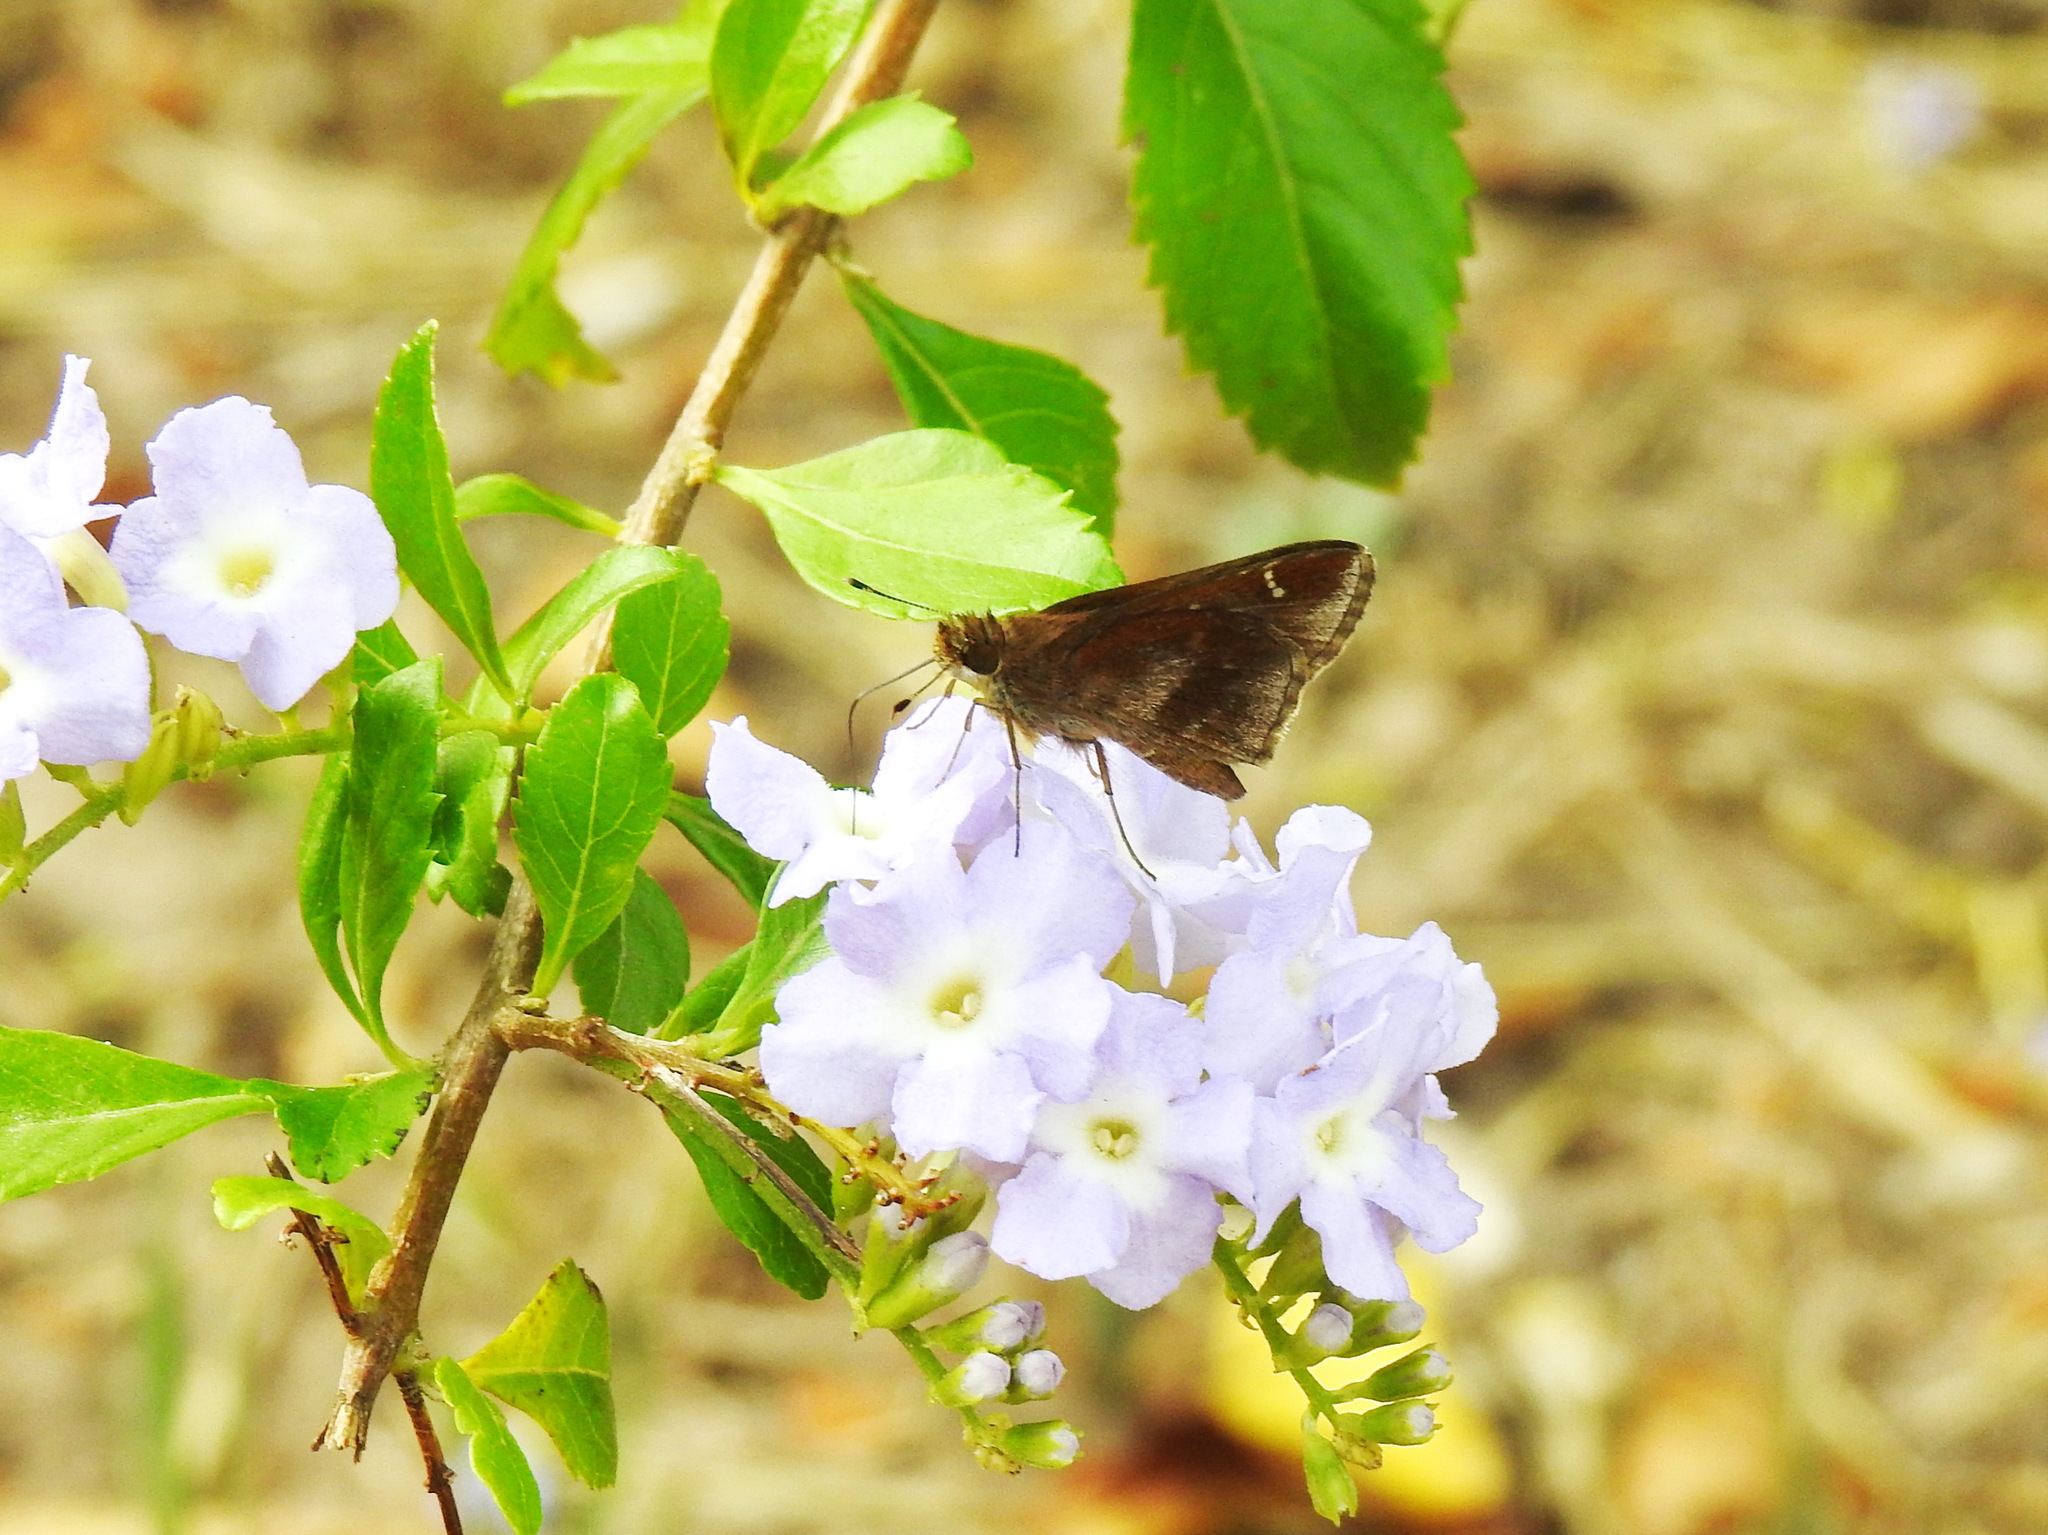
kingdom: Animalia
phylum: Arthropoda
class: Insecta
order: Lepidoptera
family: Hesperiidae
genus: Lerema
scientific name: Lerema accius
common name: Clouded skipper
